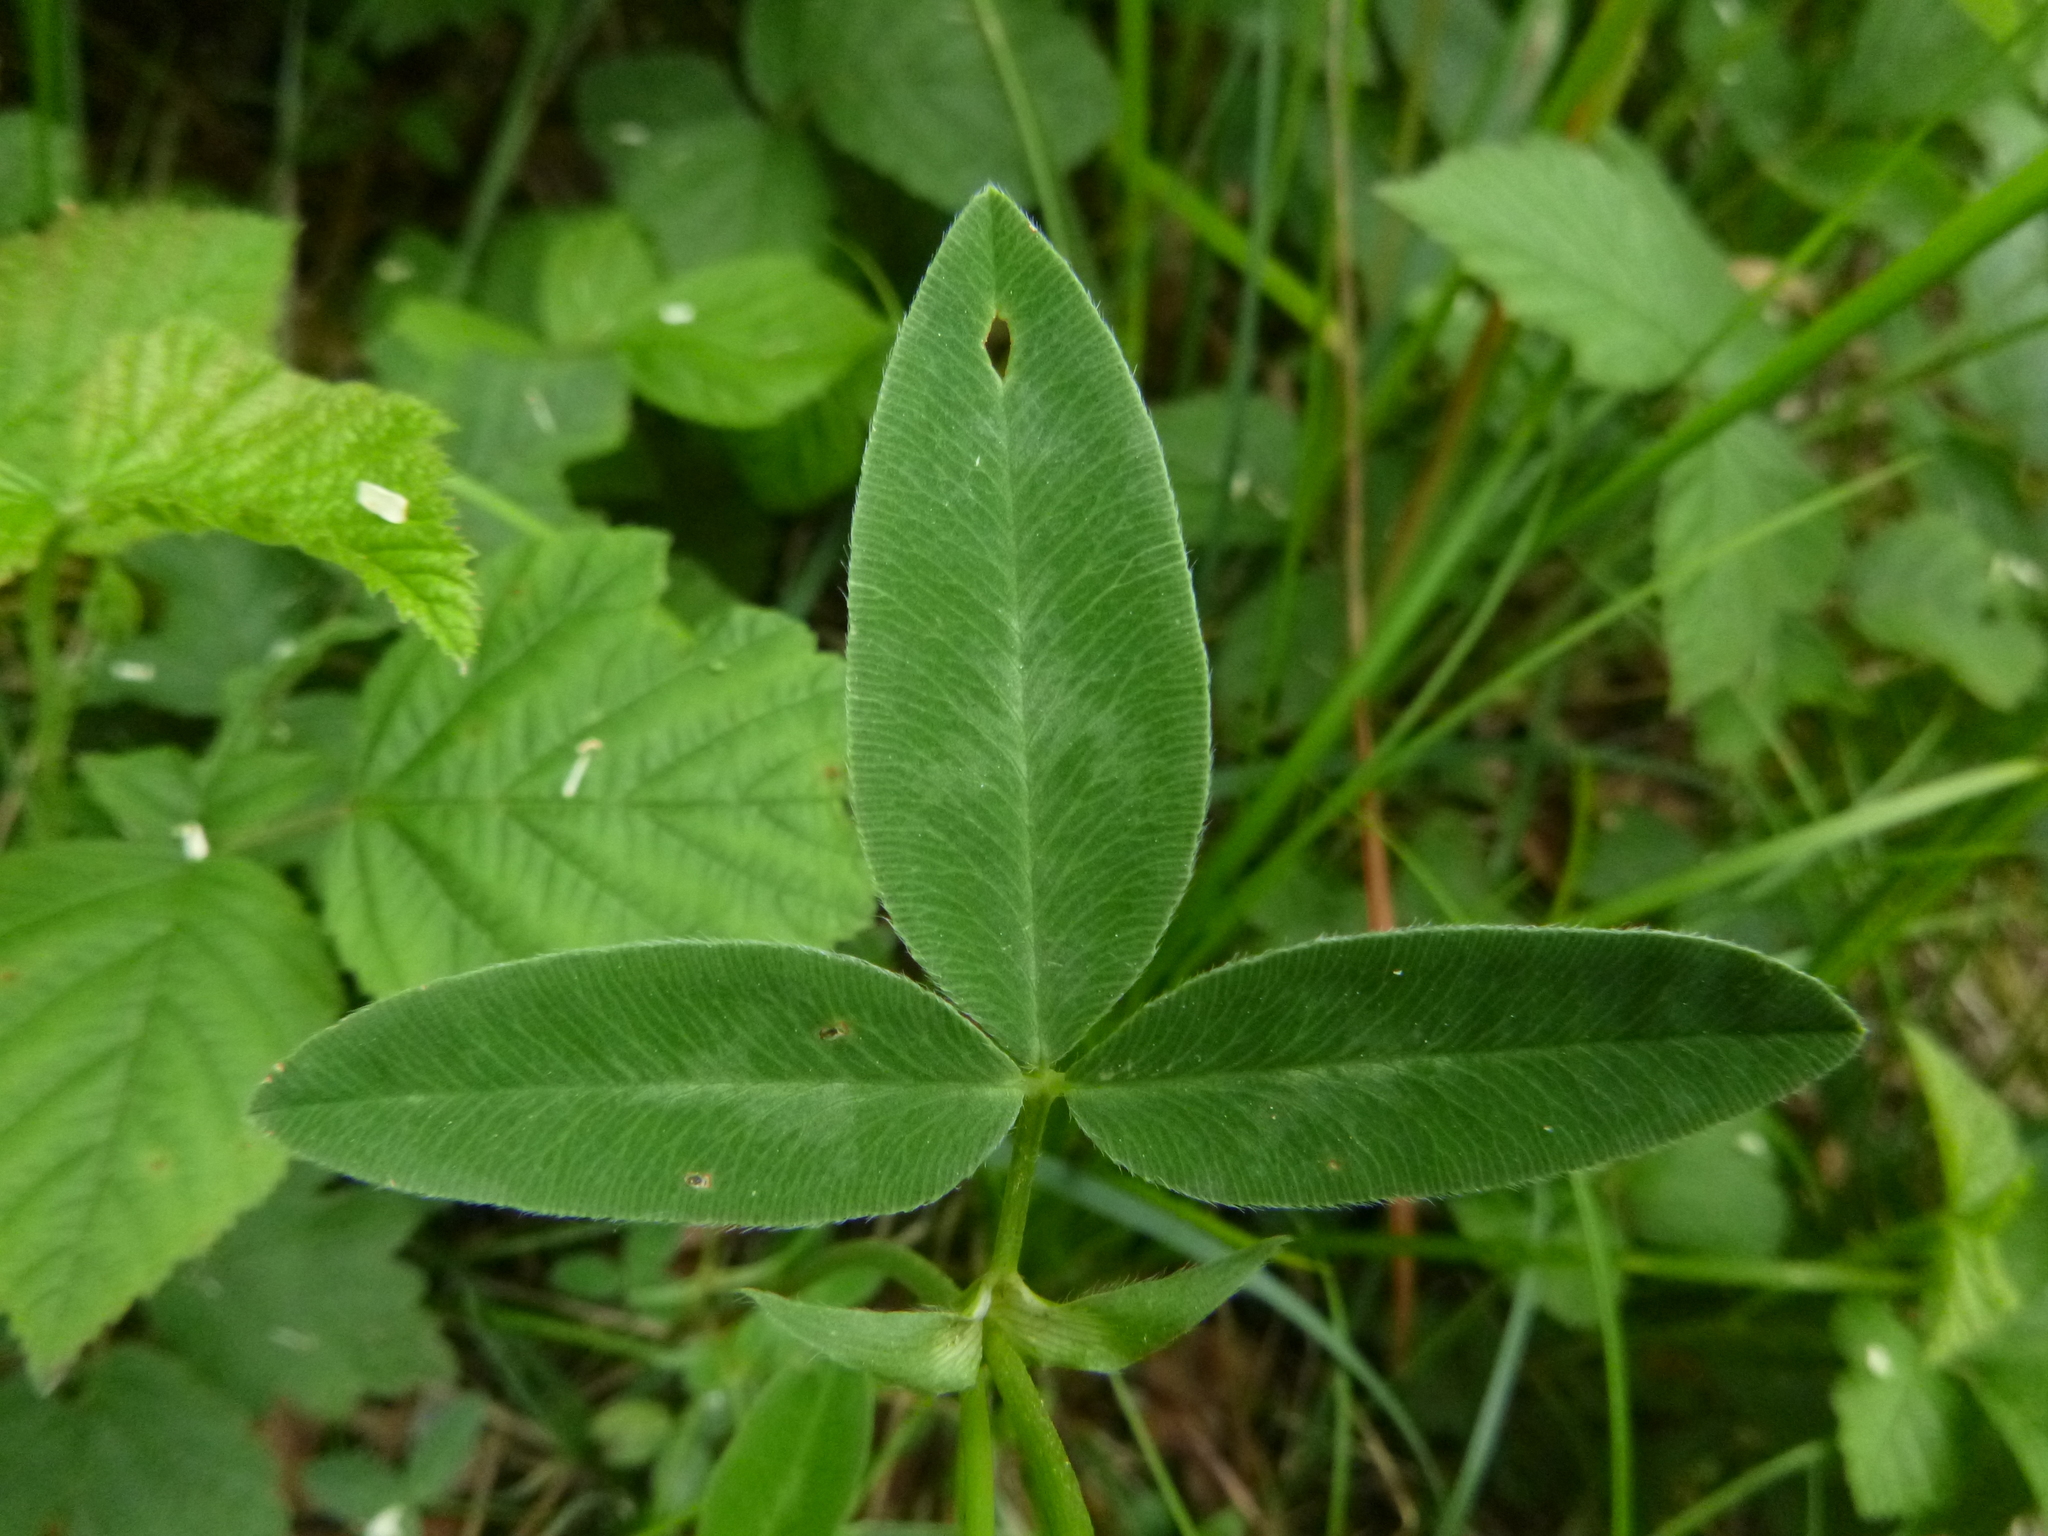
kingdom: Plantae
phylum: Tracheophyta
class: Magnoliopsida
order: Fabales
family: Fabaceae
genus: Trifolium
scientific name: Trifolium medium
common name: Zigzag clover
